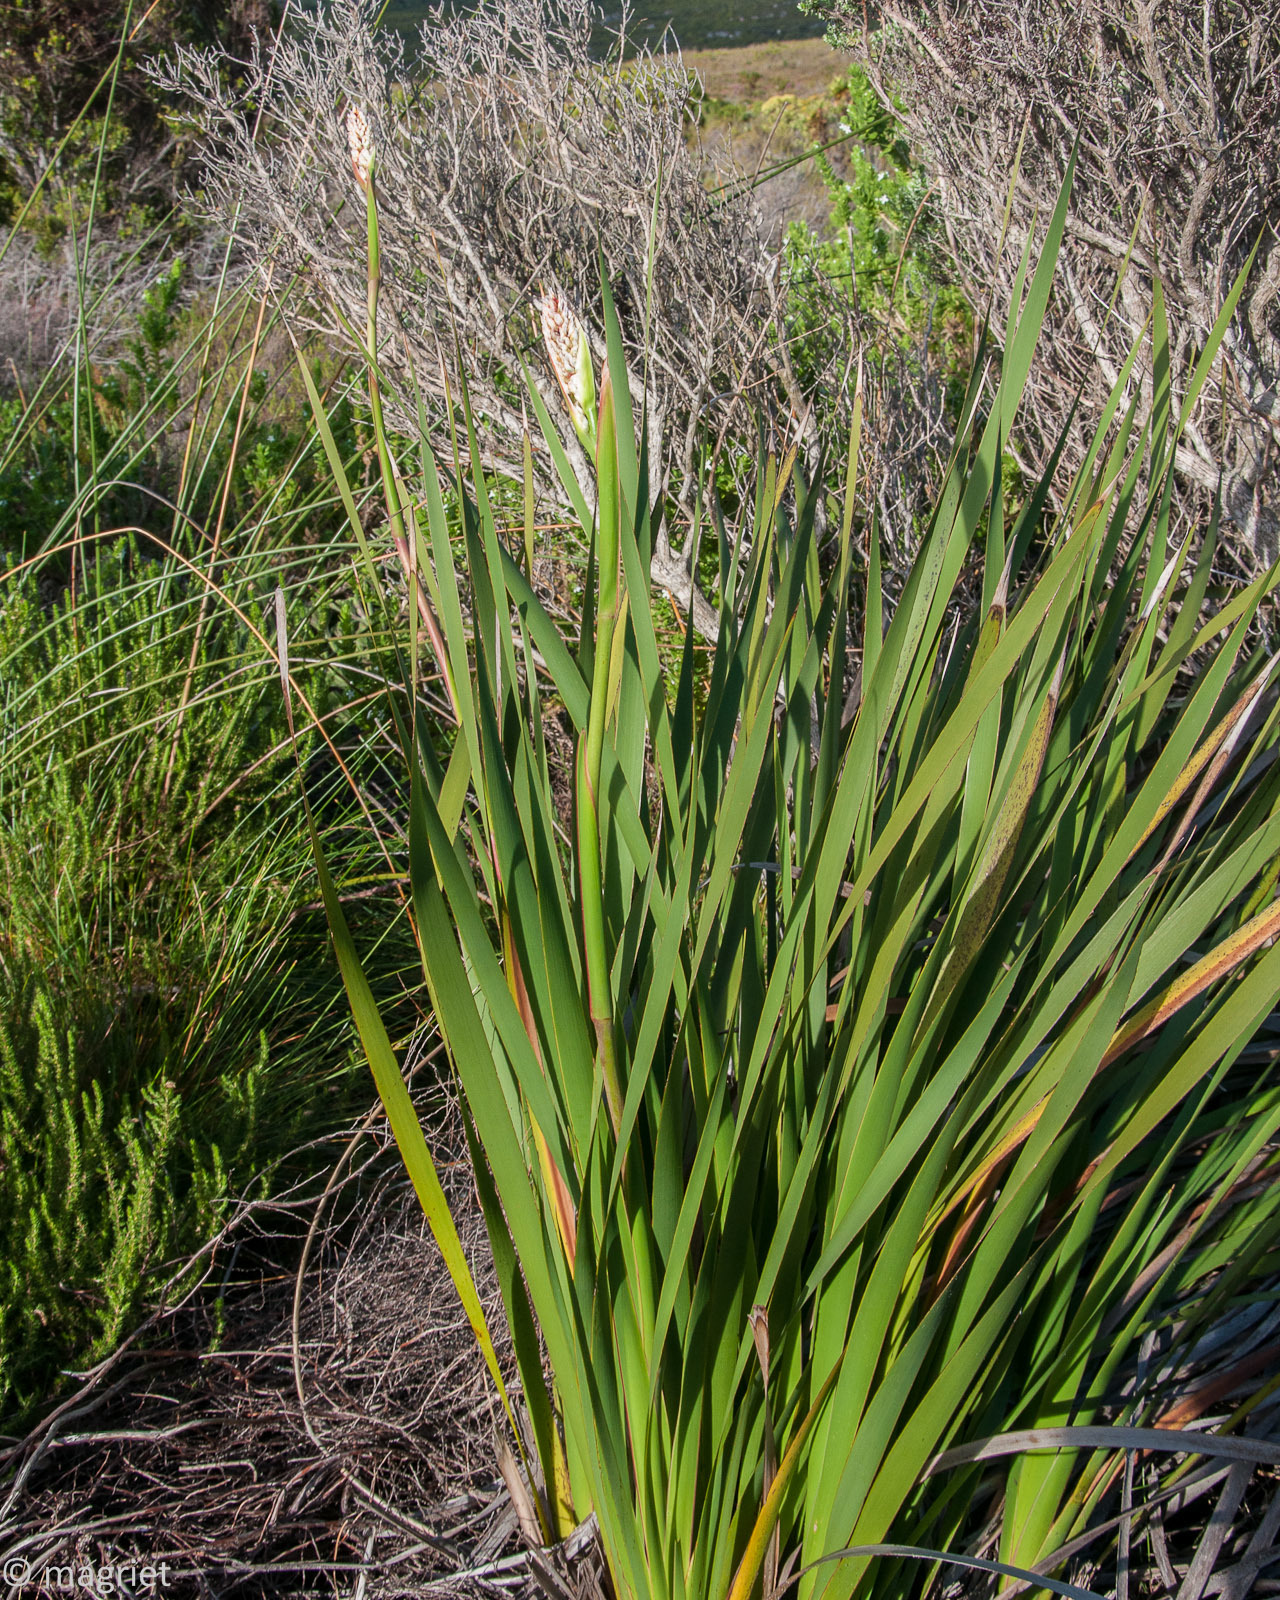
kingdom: Plantae
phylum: Tracheophyta
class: Liliopsida
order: Asparagales
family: Iridaceae
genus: Aristea
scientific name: Aristea capitata
